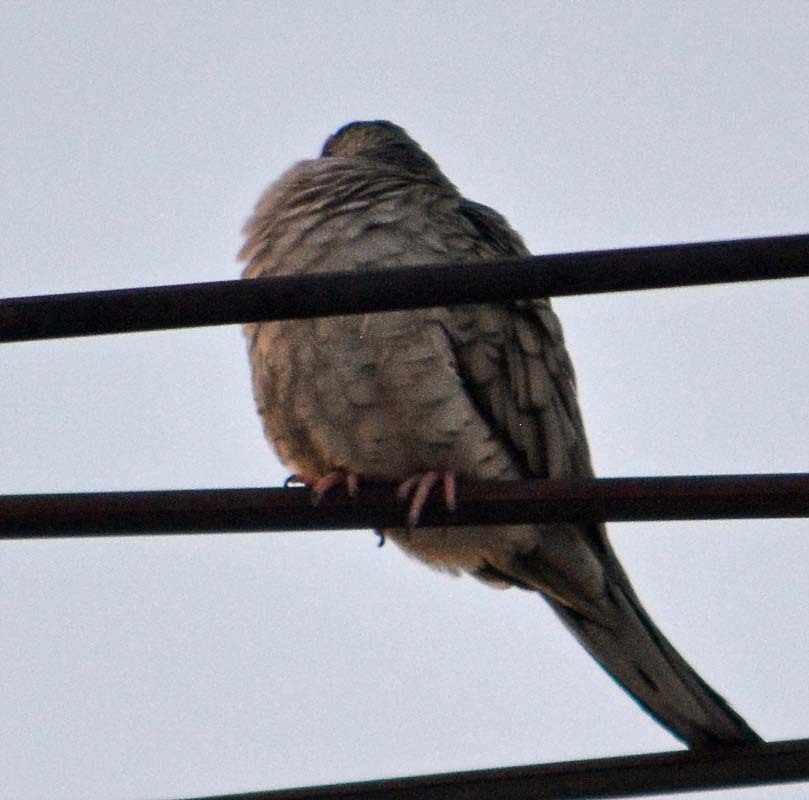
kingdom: Animalia
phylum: Chordata
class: Aves
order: Columbiformes
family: Columbidae
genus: Columbina
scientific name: Columbina inca
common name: Inca dove
